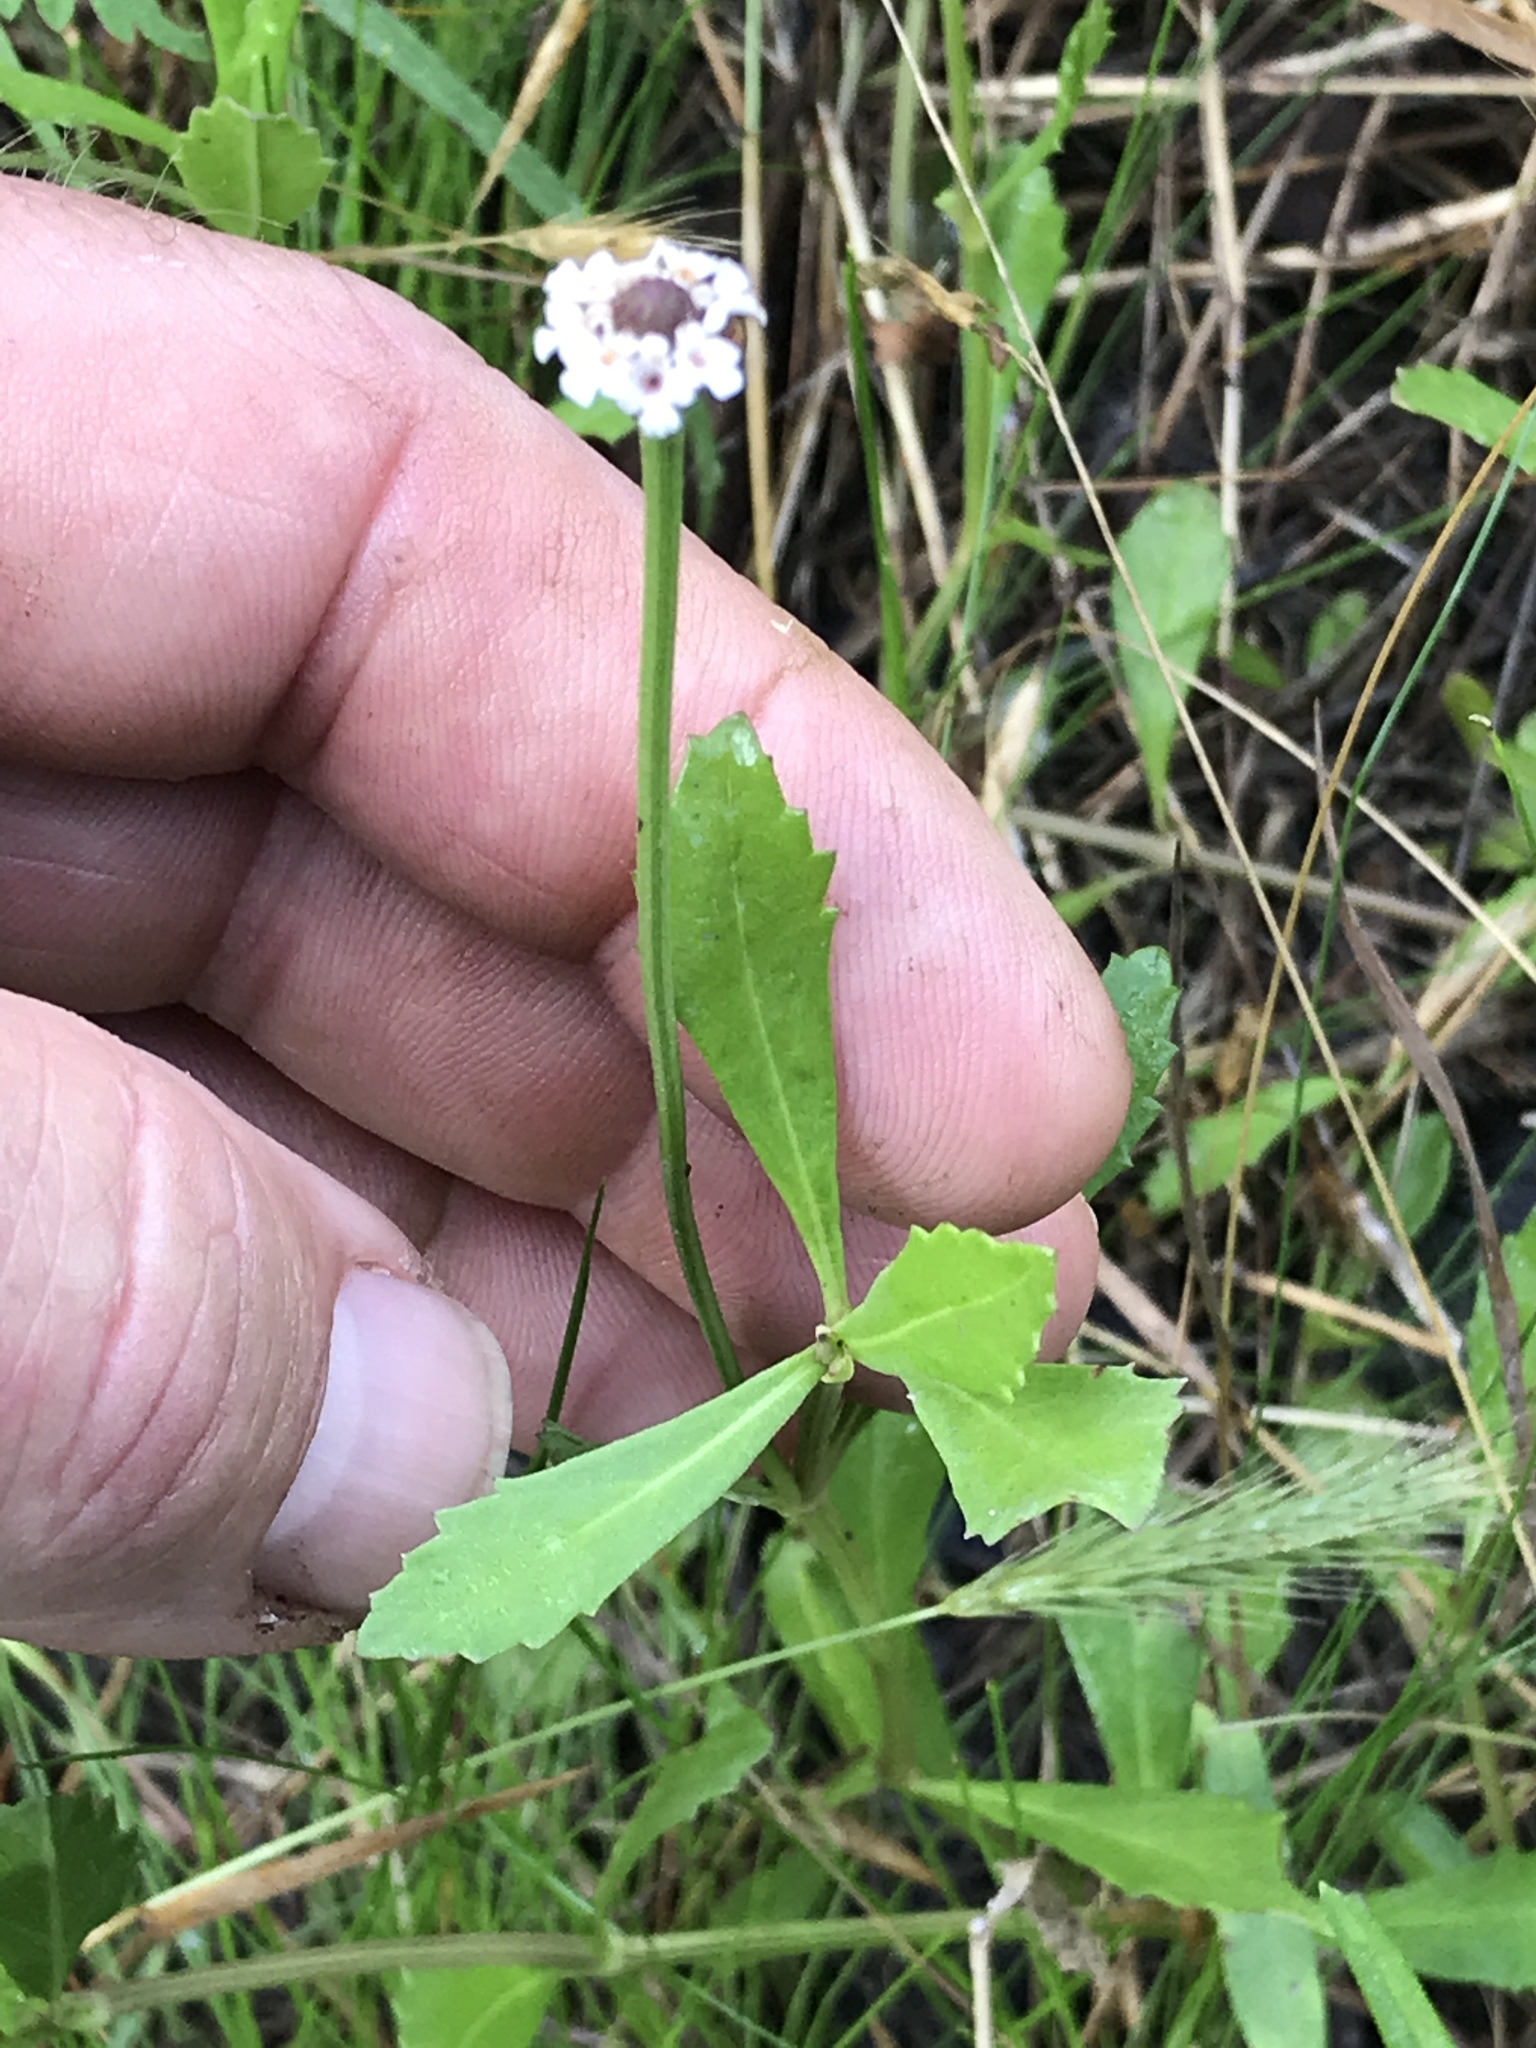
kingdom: Plantae
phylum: Tracheophyta
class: Magnoliopsida
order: Lamiales
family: Verbenaceae
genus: Phyla
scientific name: Phyla nodiflora
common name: Frogfruit
